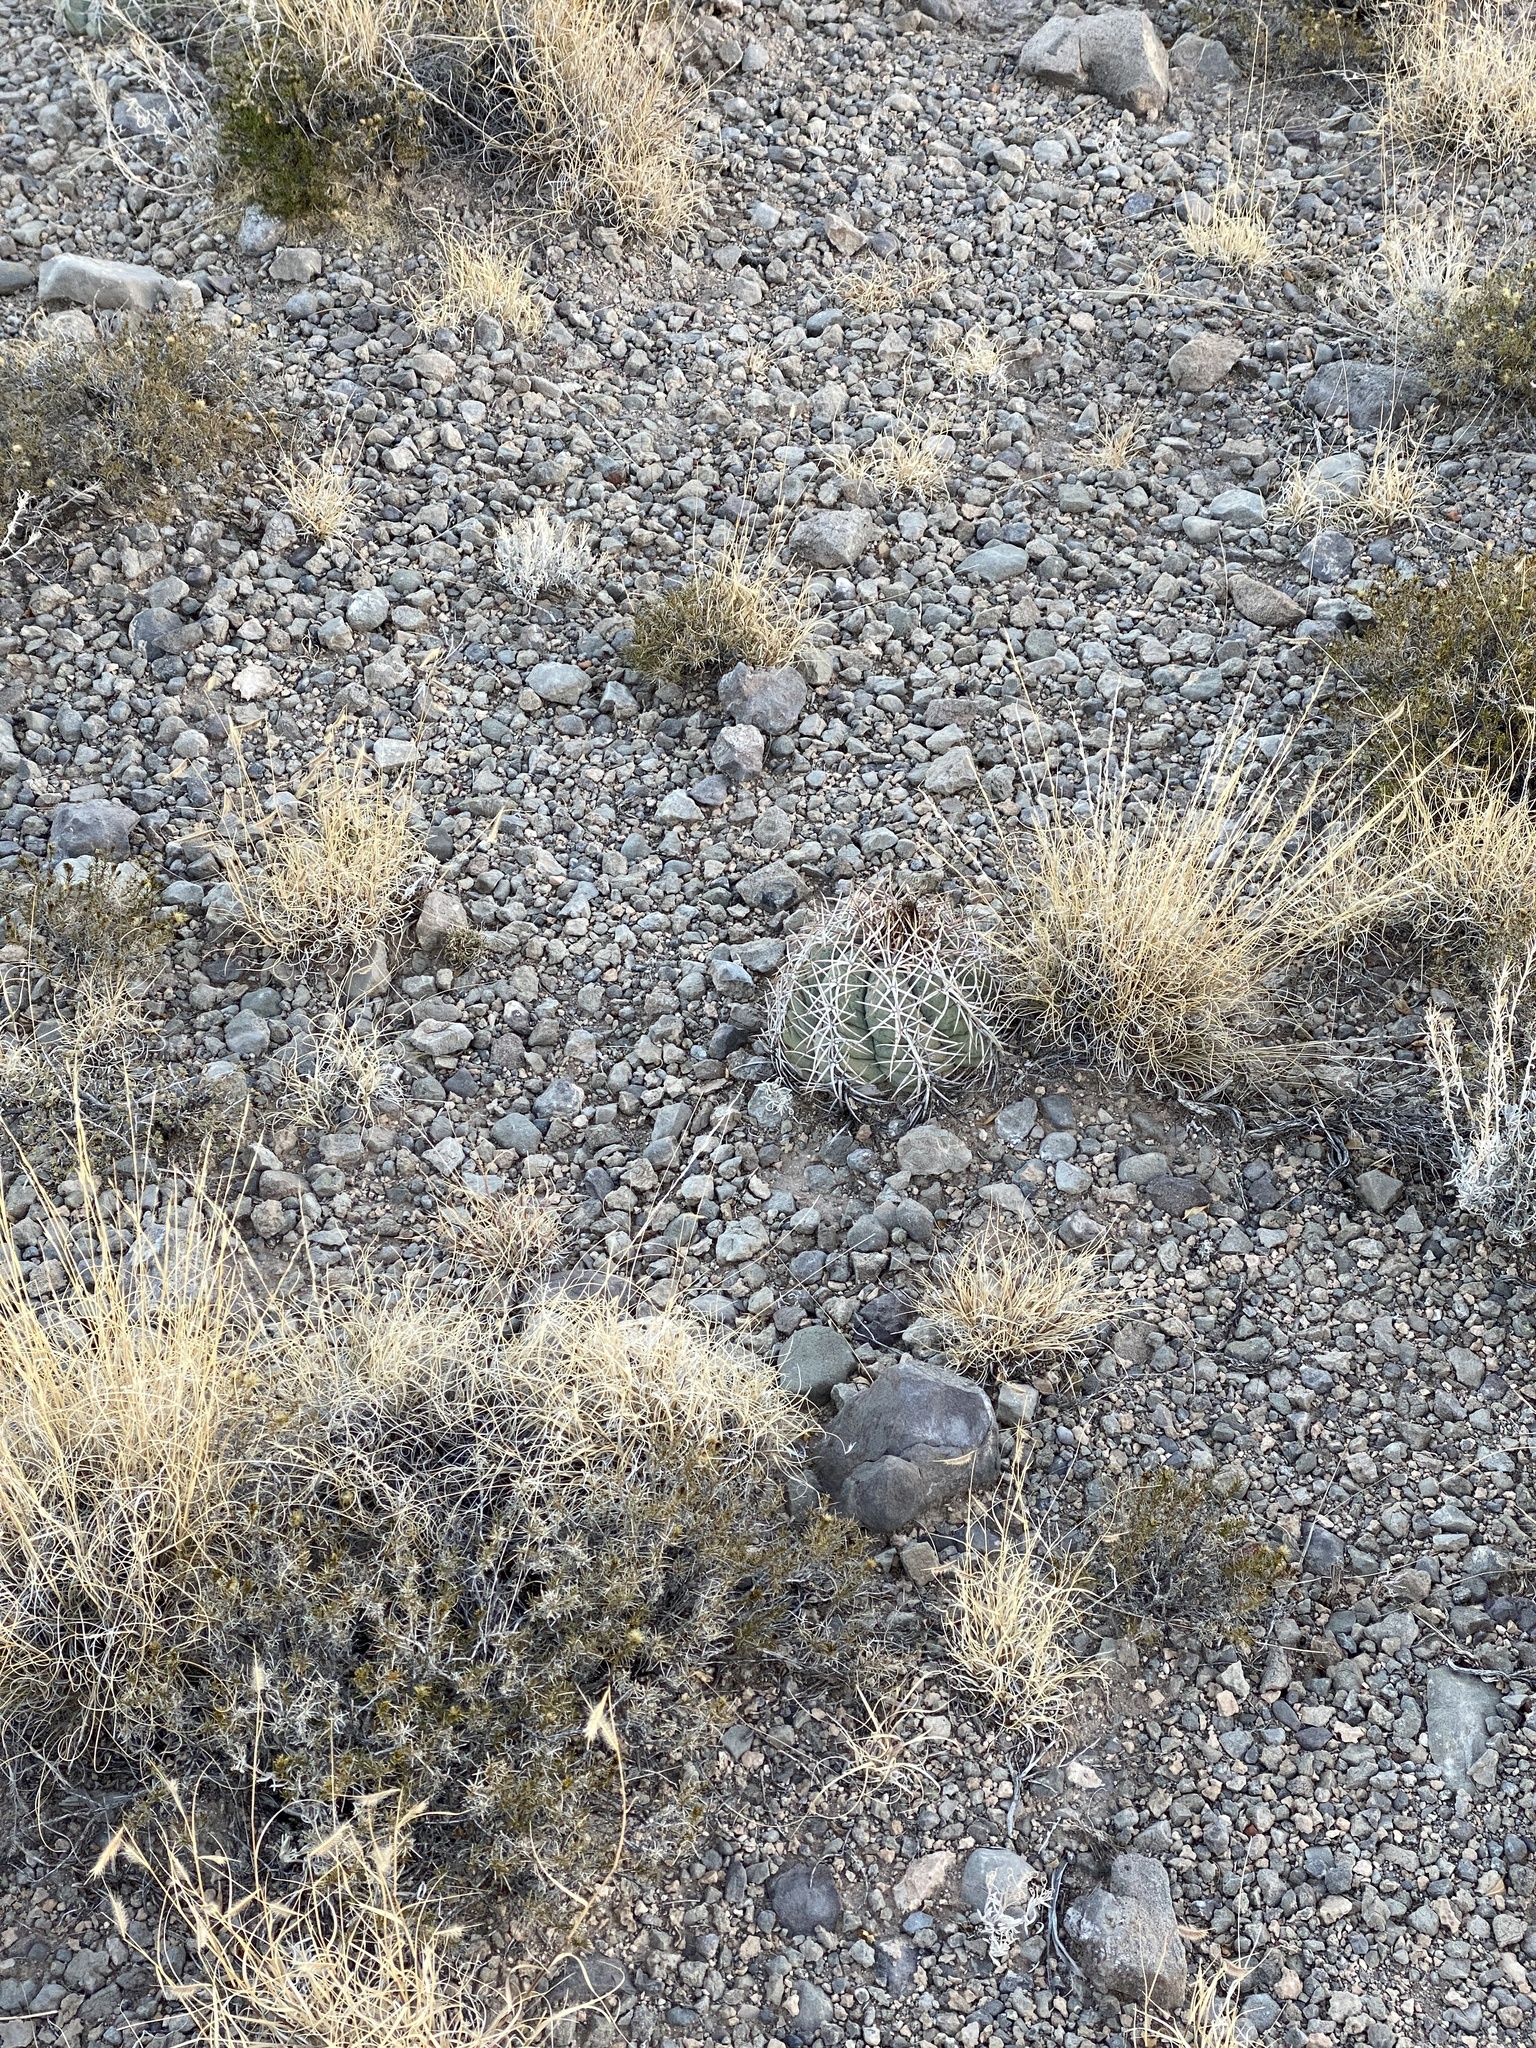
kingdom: Plantae
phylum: Tracheophyta
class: Magnoliopsida
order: Caryophyllales
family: Cactaceae
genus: Echinocactus
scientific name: Echinocactus horizonthalonius
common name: Devilshead
